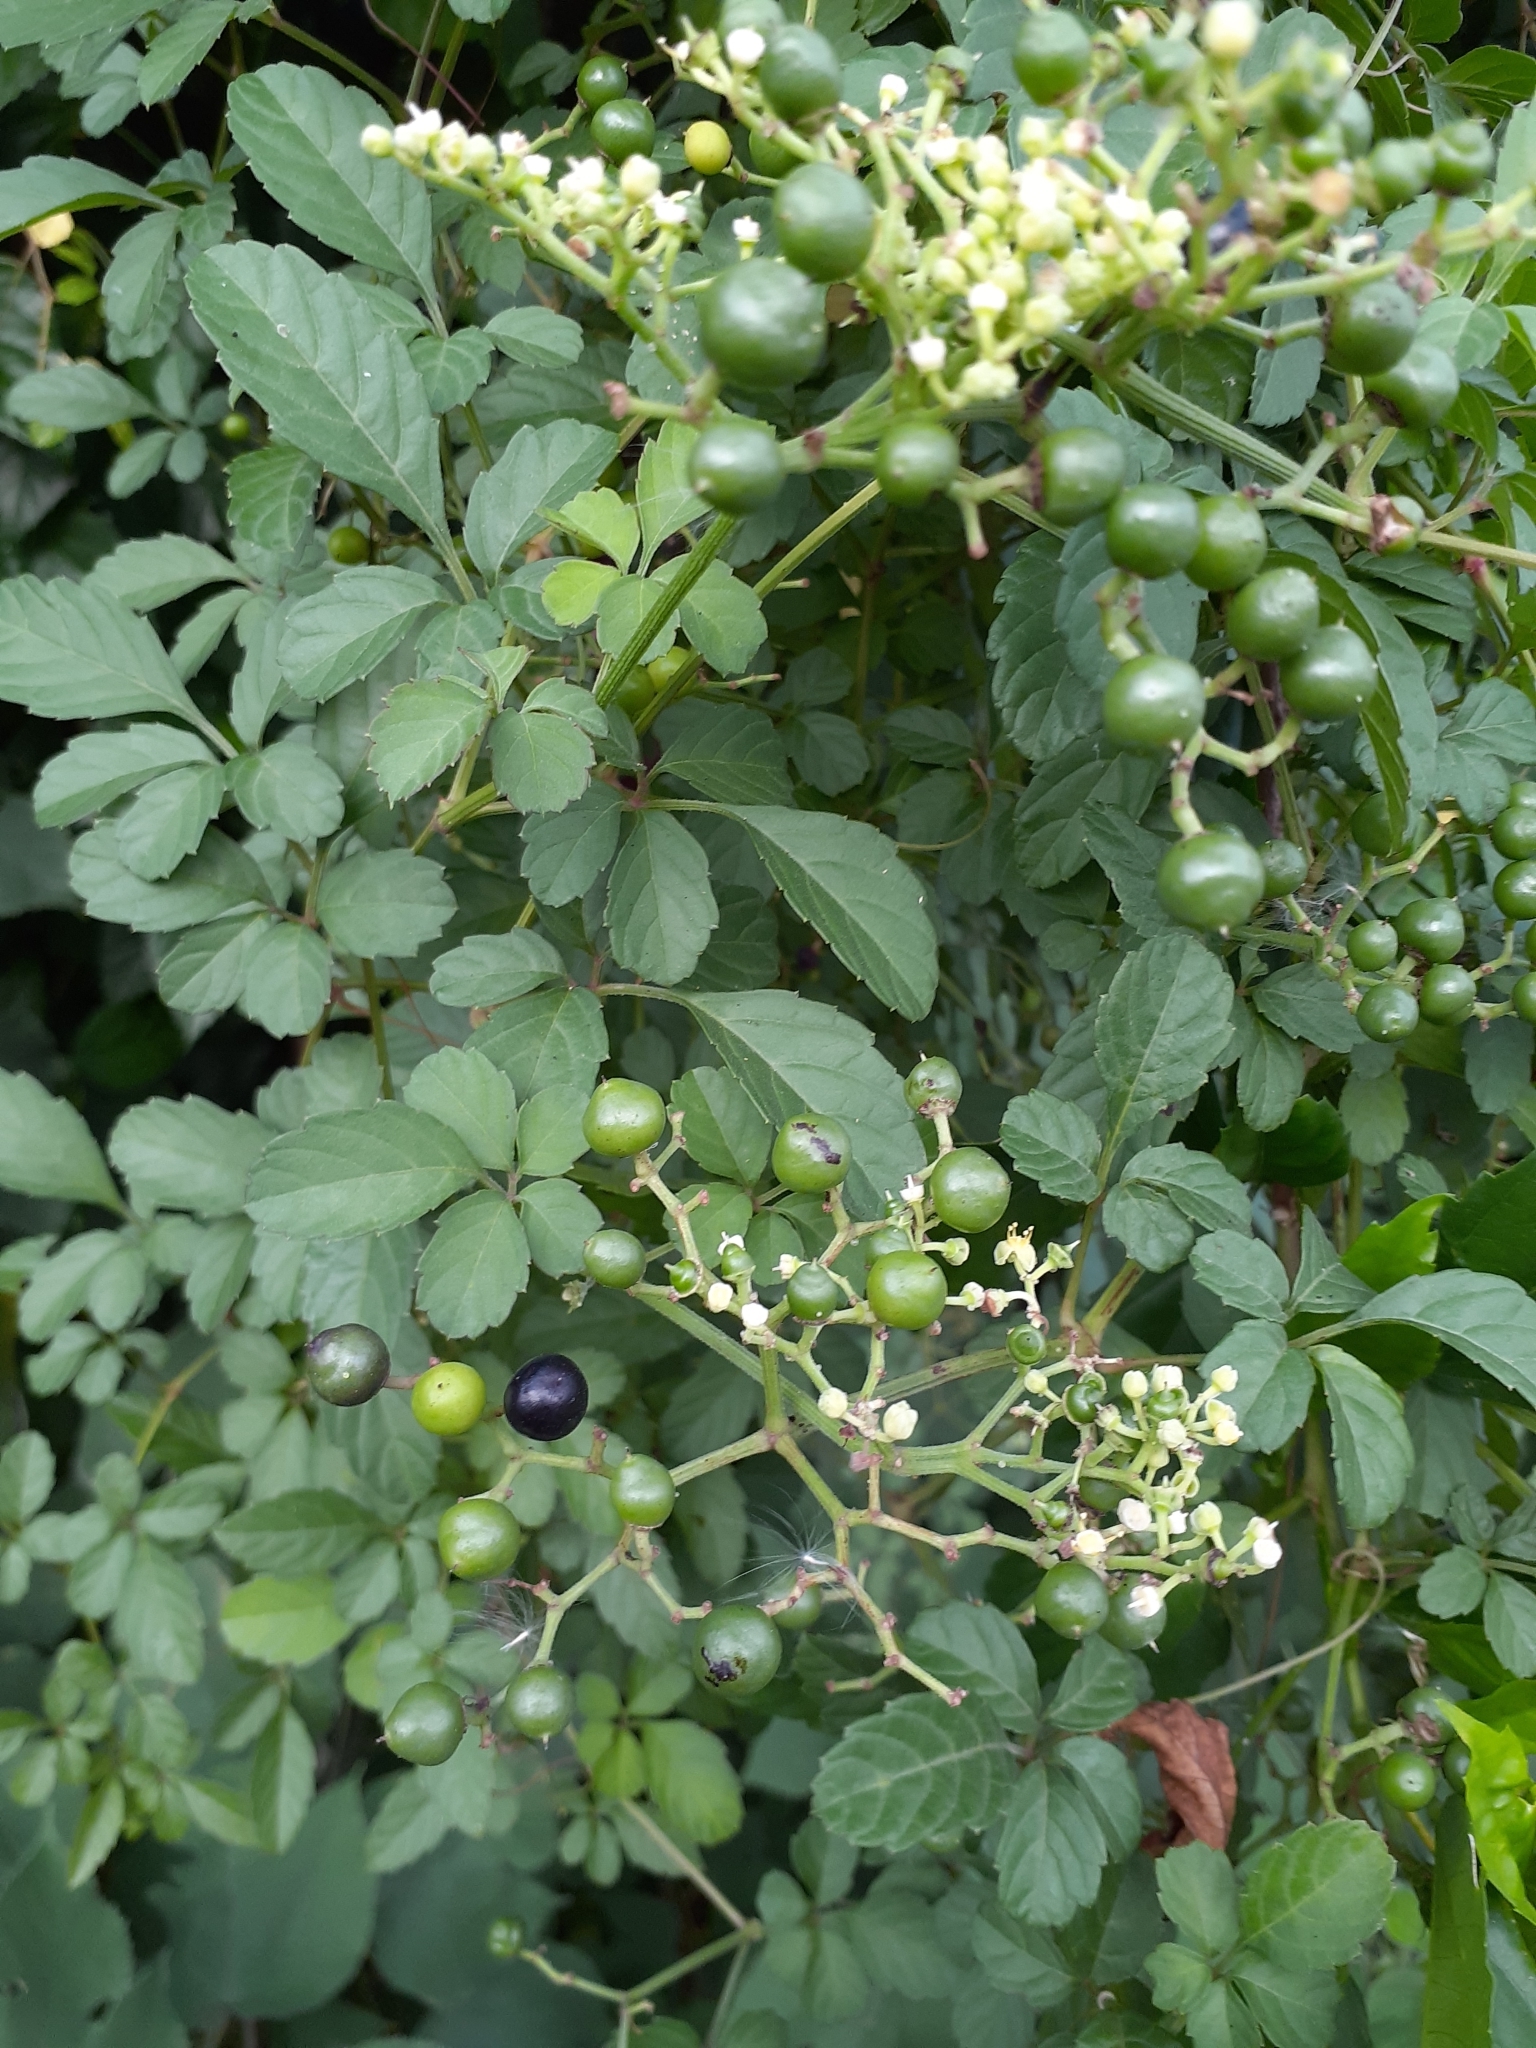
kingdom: Plantae
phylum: Tracheophyta
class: Magnoliopsida
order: Vitales
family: Vitaceae
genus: Causonis
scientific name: Causonis japonica
